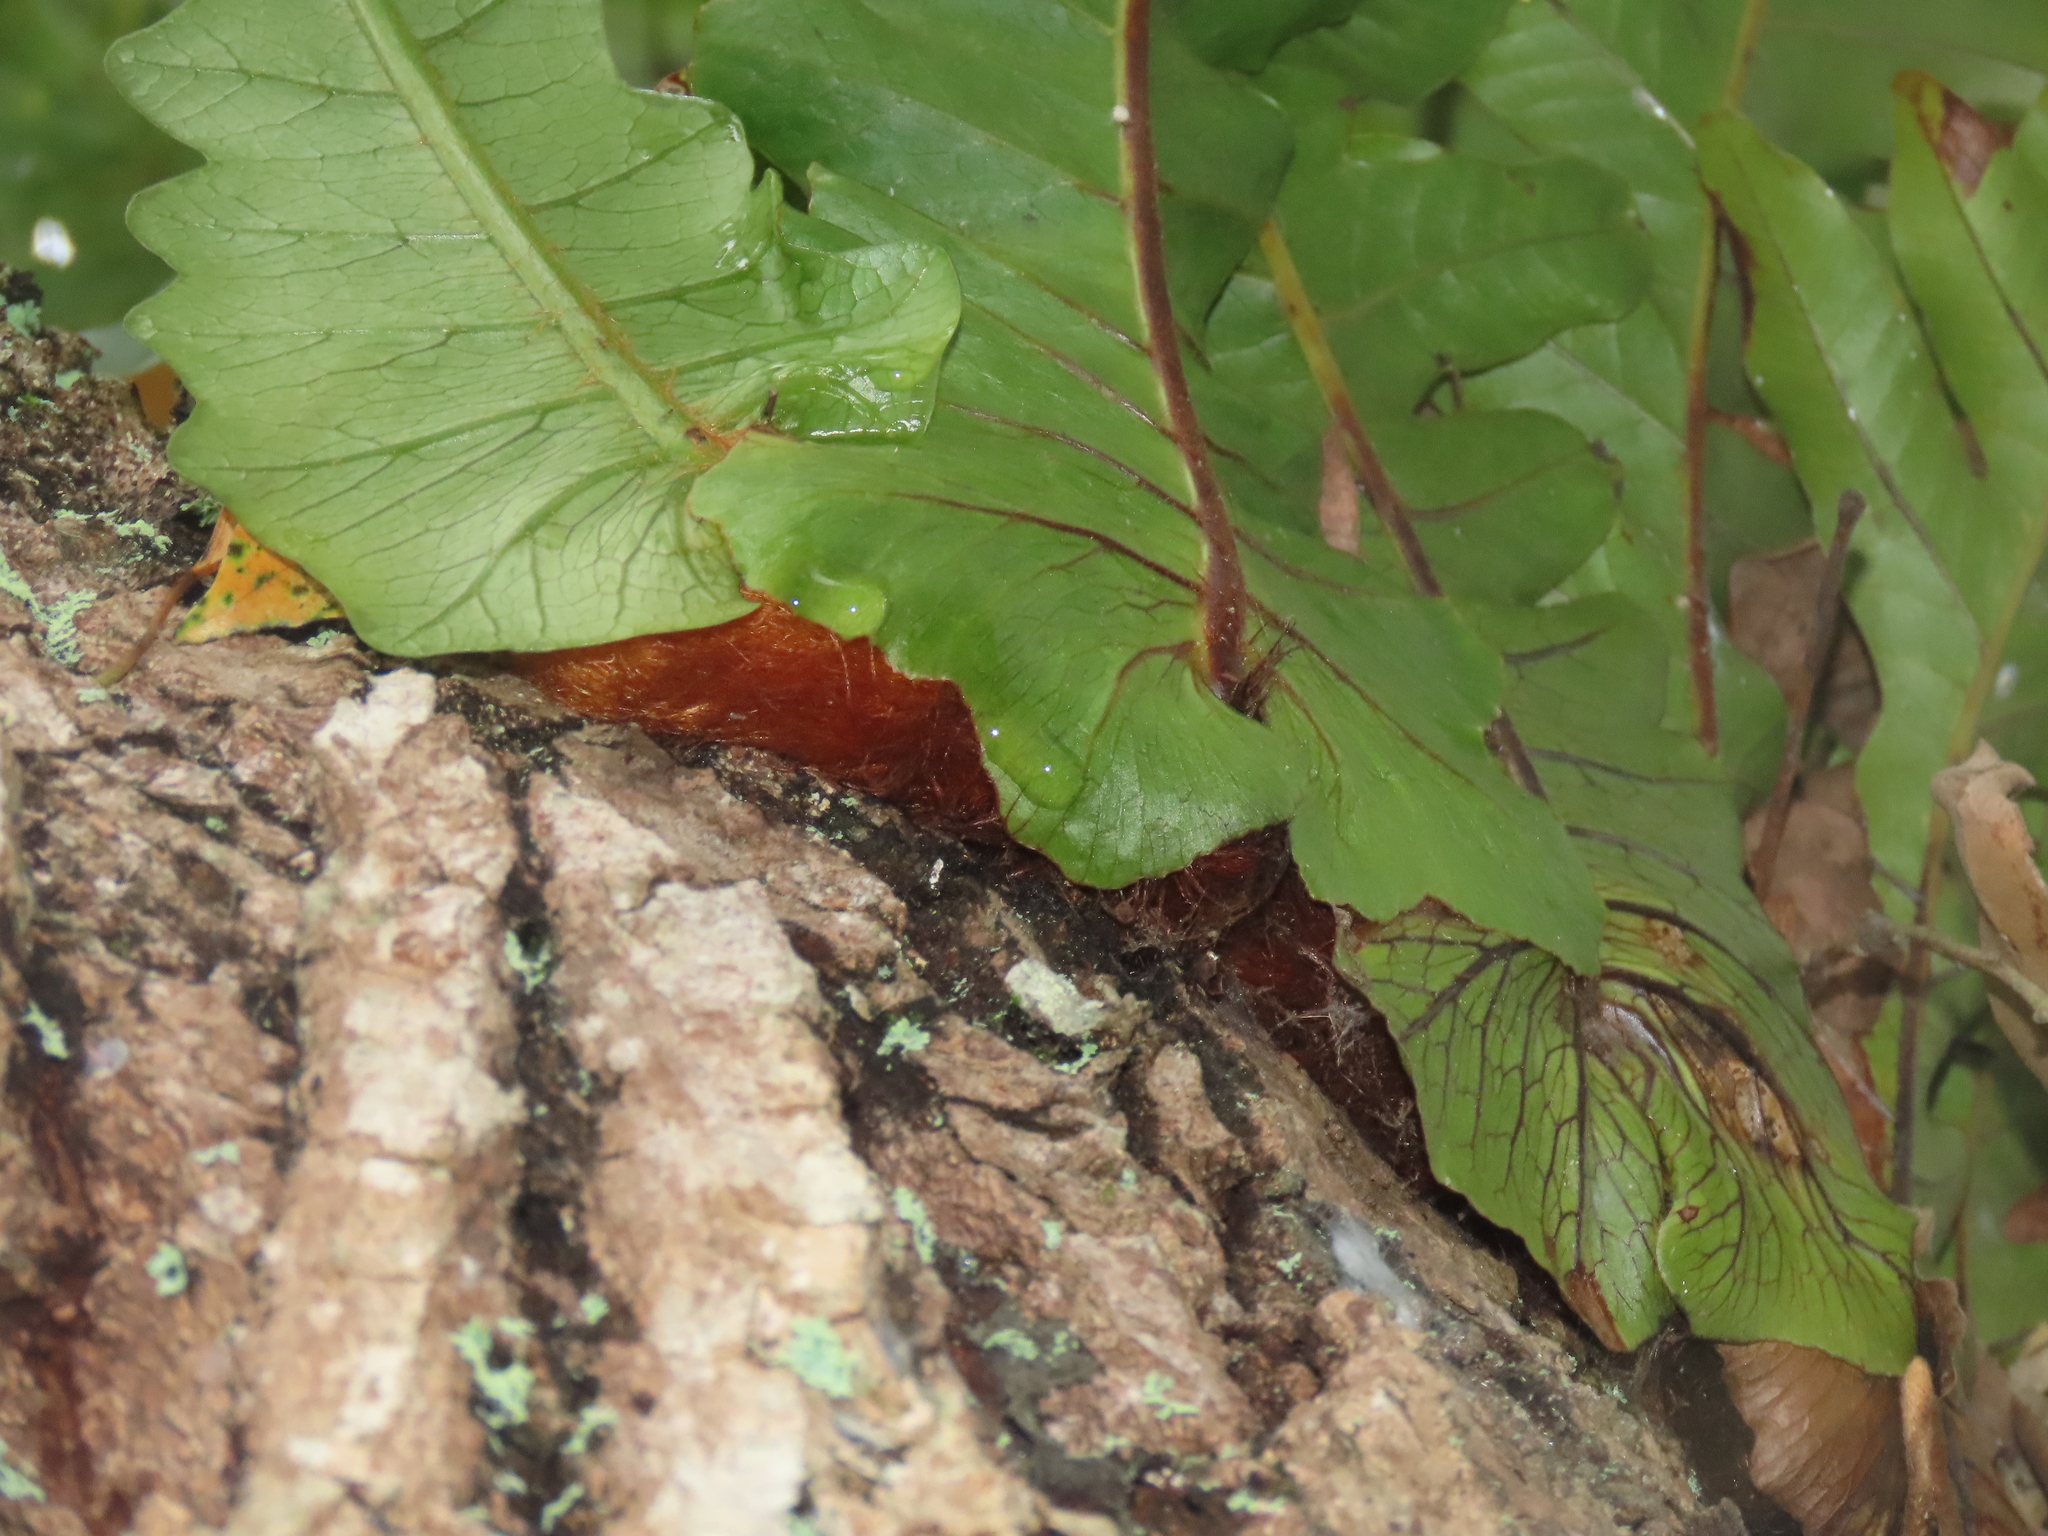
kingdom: Plantae
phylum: Tracheophyta
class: Polypodiopsida
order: Polypodiales
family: Polypodiaceae
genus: Drynaria
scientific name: Drynaria coronans
